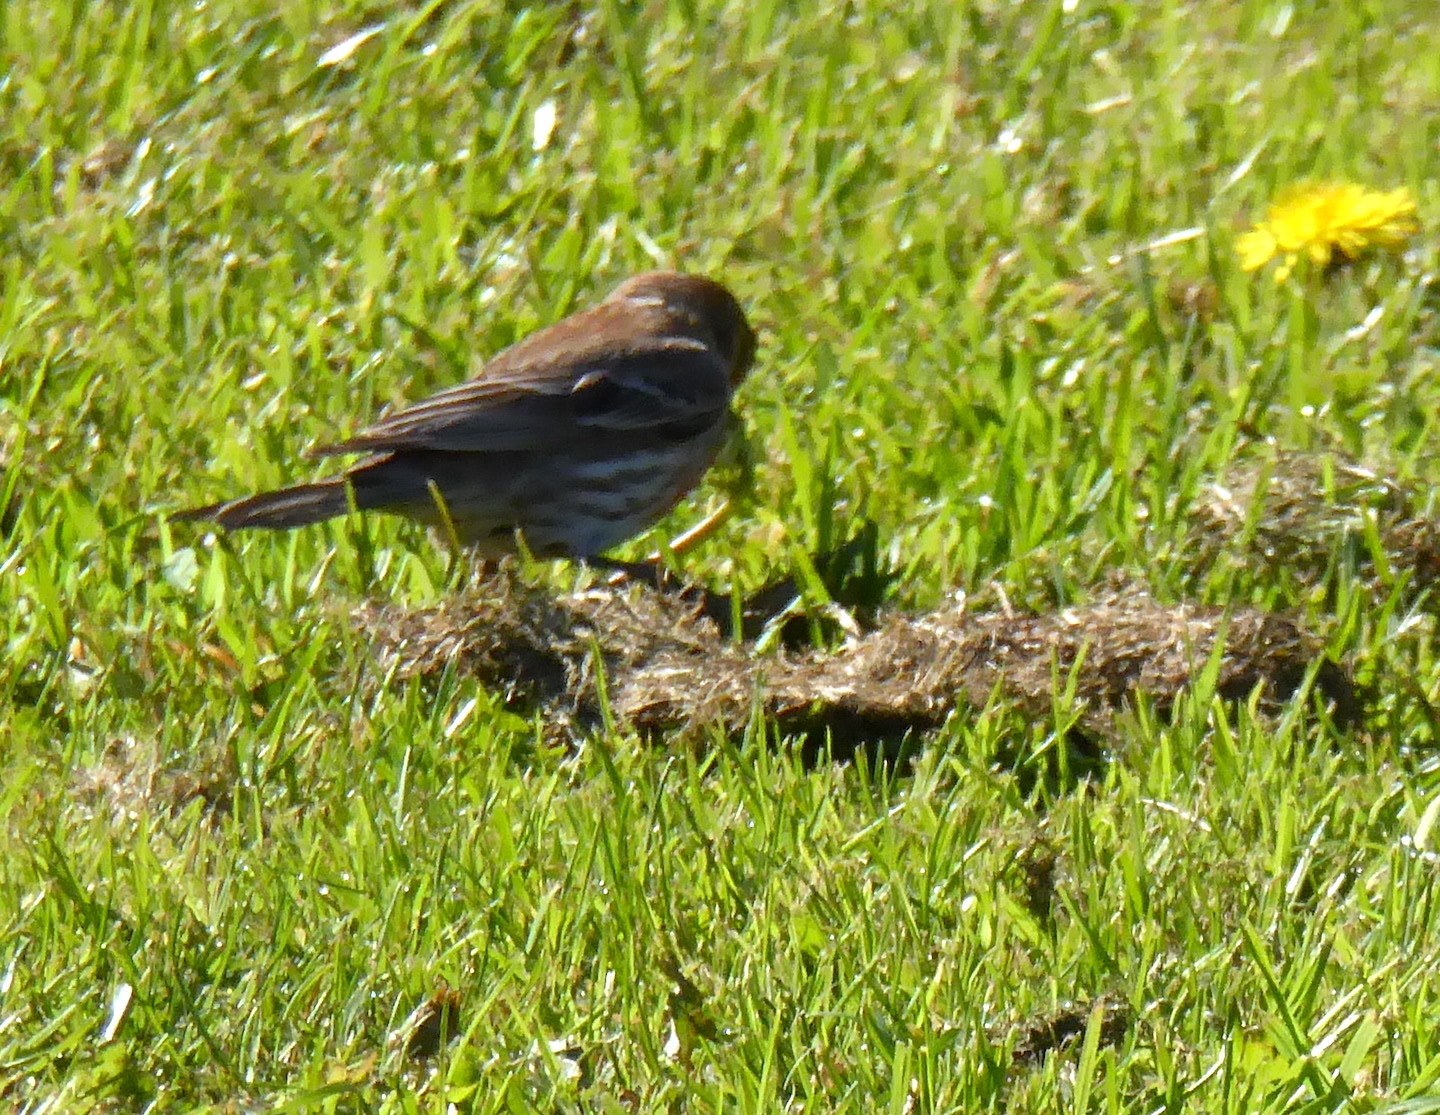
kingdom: Animalia
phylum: Chordata
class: Aves
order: Passeriformes
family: Fringillidae
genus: Haemorhous
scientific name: Haemorhous mexicanus
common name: House finch
